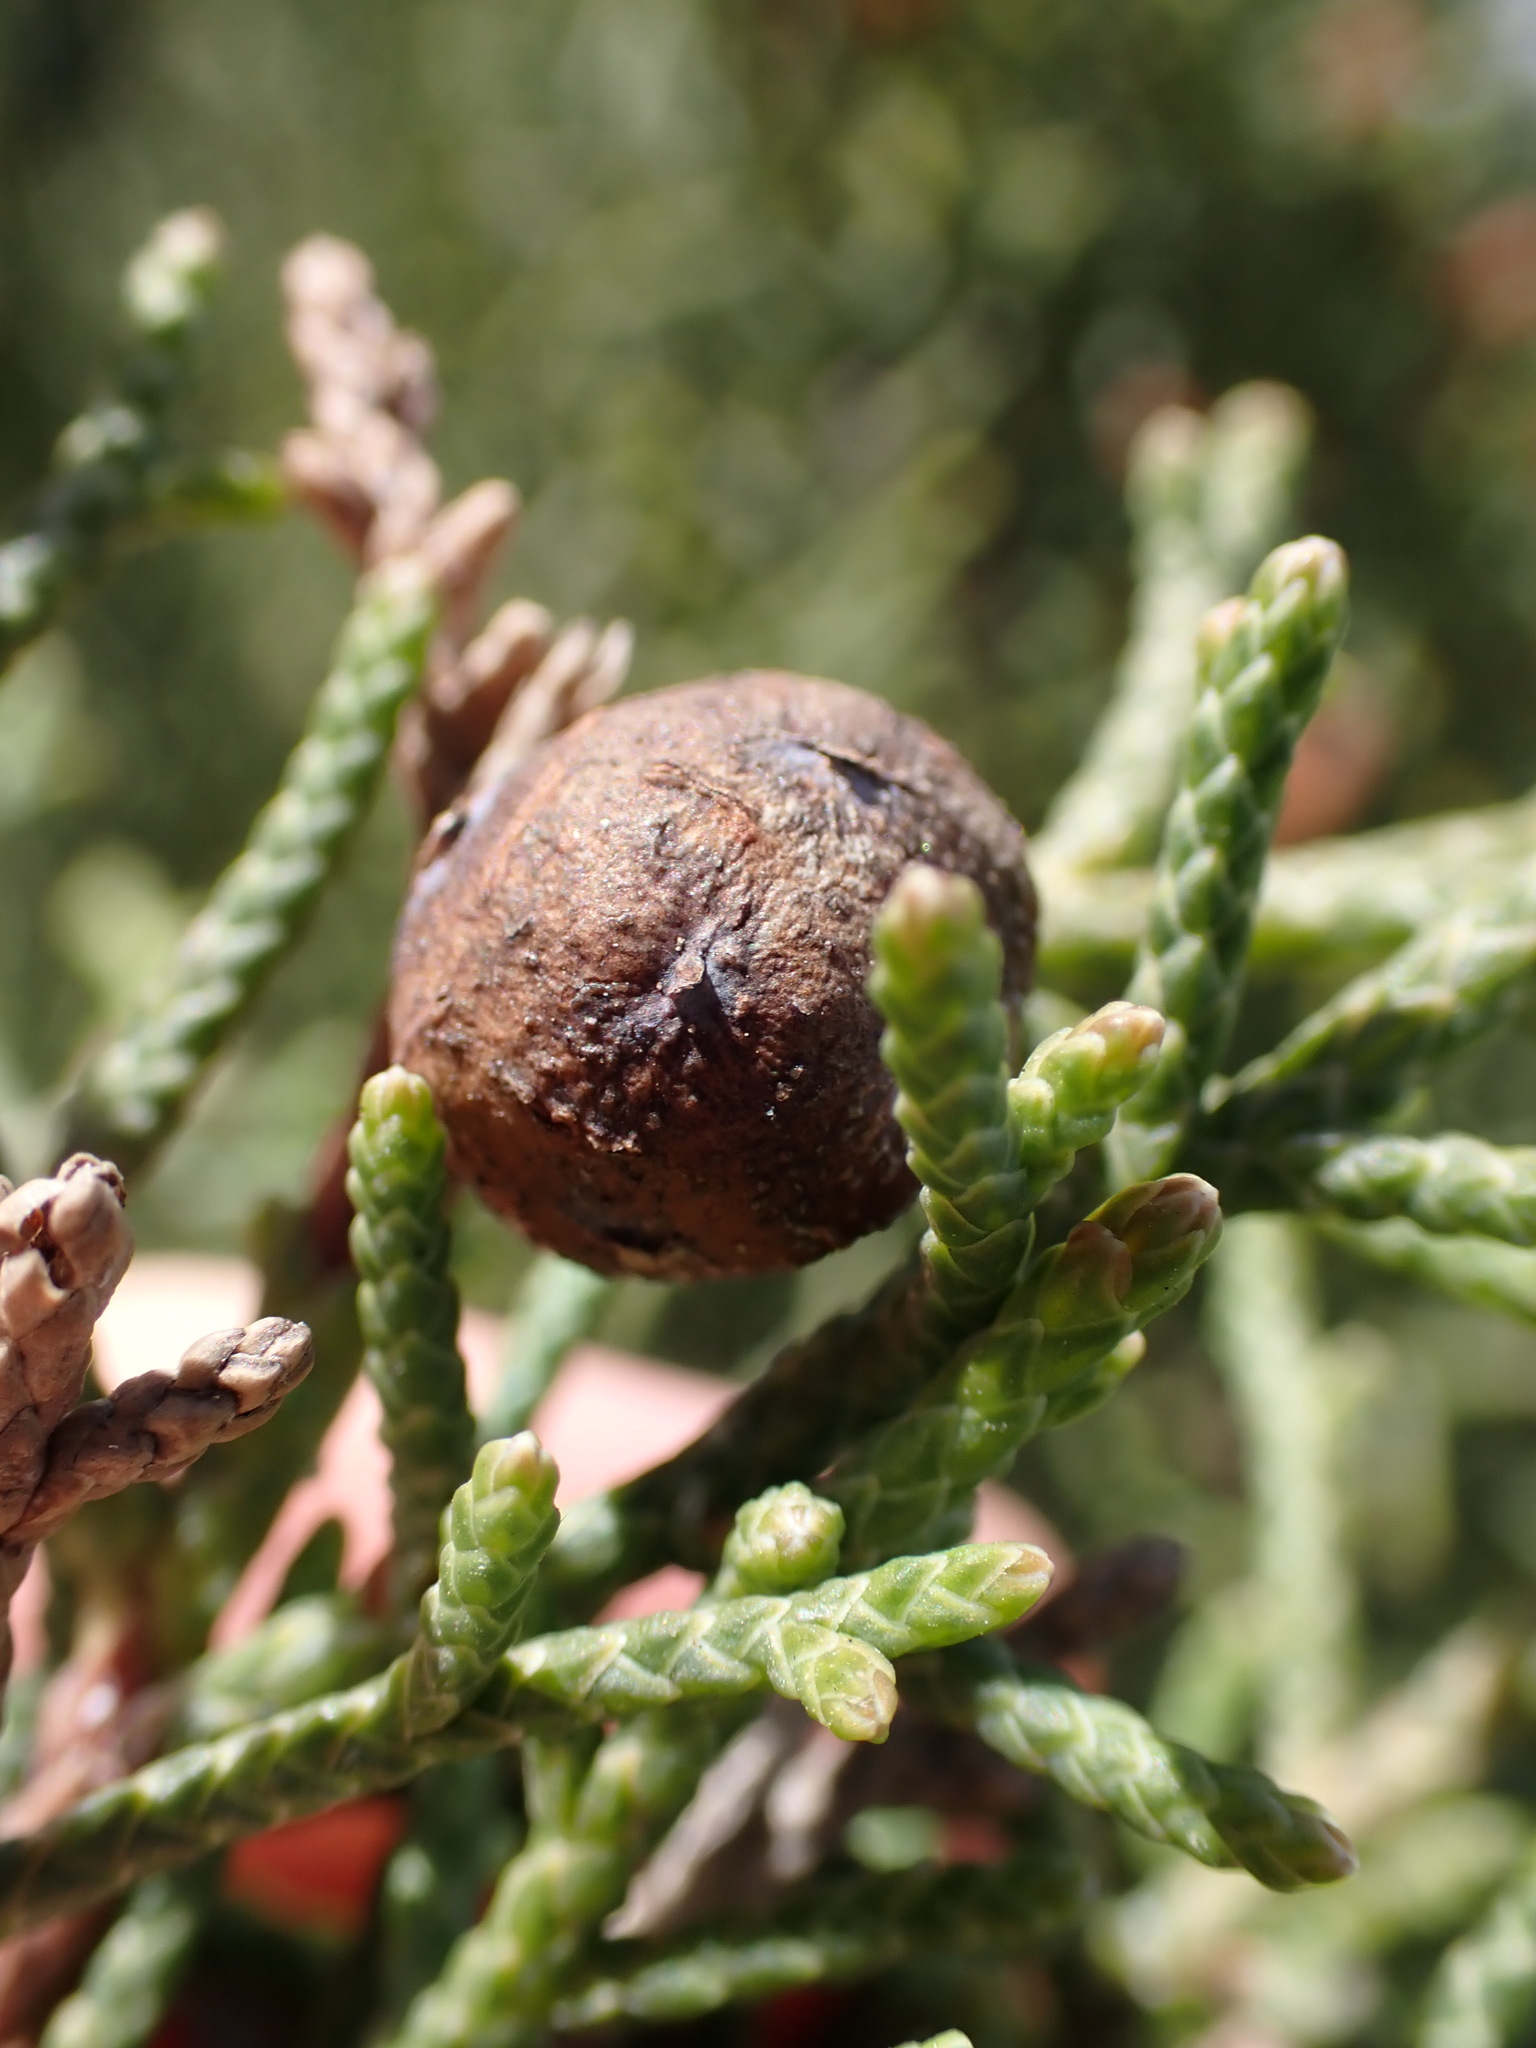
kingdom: Plantae
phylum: Tracheophyta
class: Pinopsida
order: Pinales
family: Cupressaceae
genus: Juniperus
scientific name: Juniperus phoenicea
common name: Phoenician juniper
